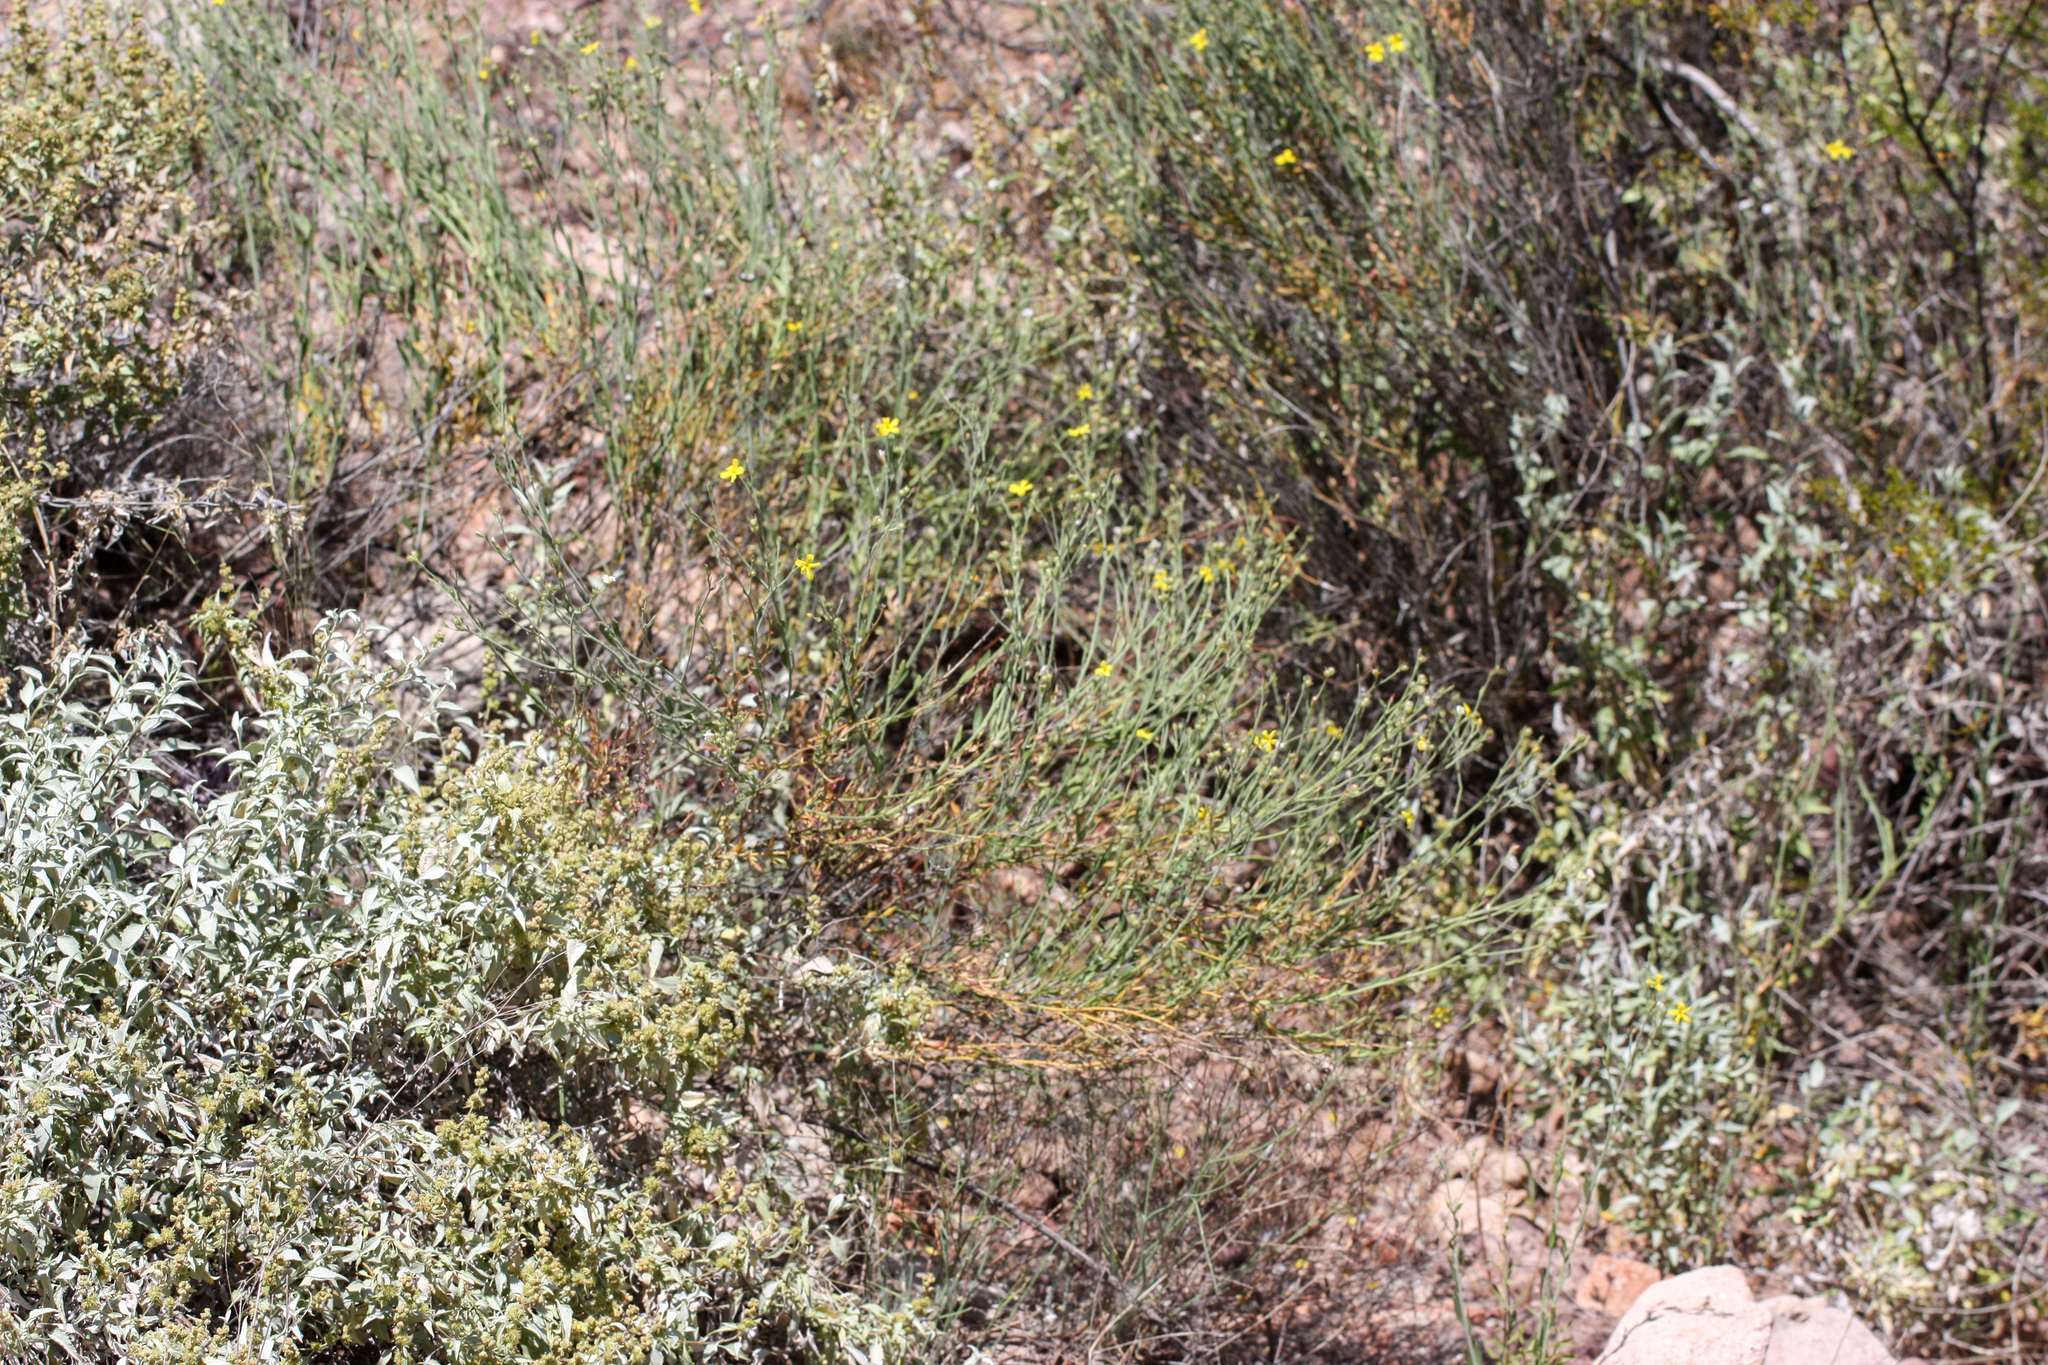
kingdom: Plantae
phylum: Tracheophyta
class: Magnoliopsida
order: Lamiales
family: Oleaceae
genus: Menodora
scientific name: Menodora scabra
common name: Rough menodora
